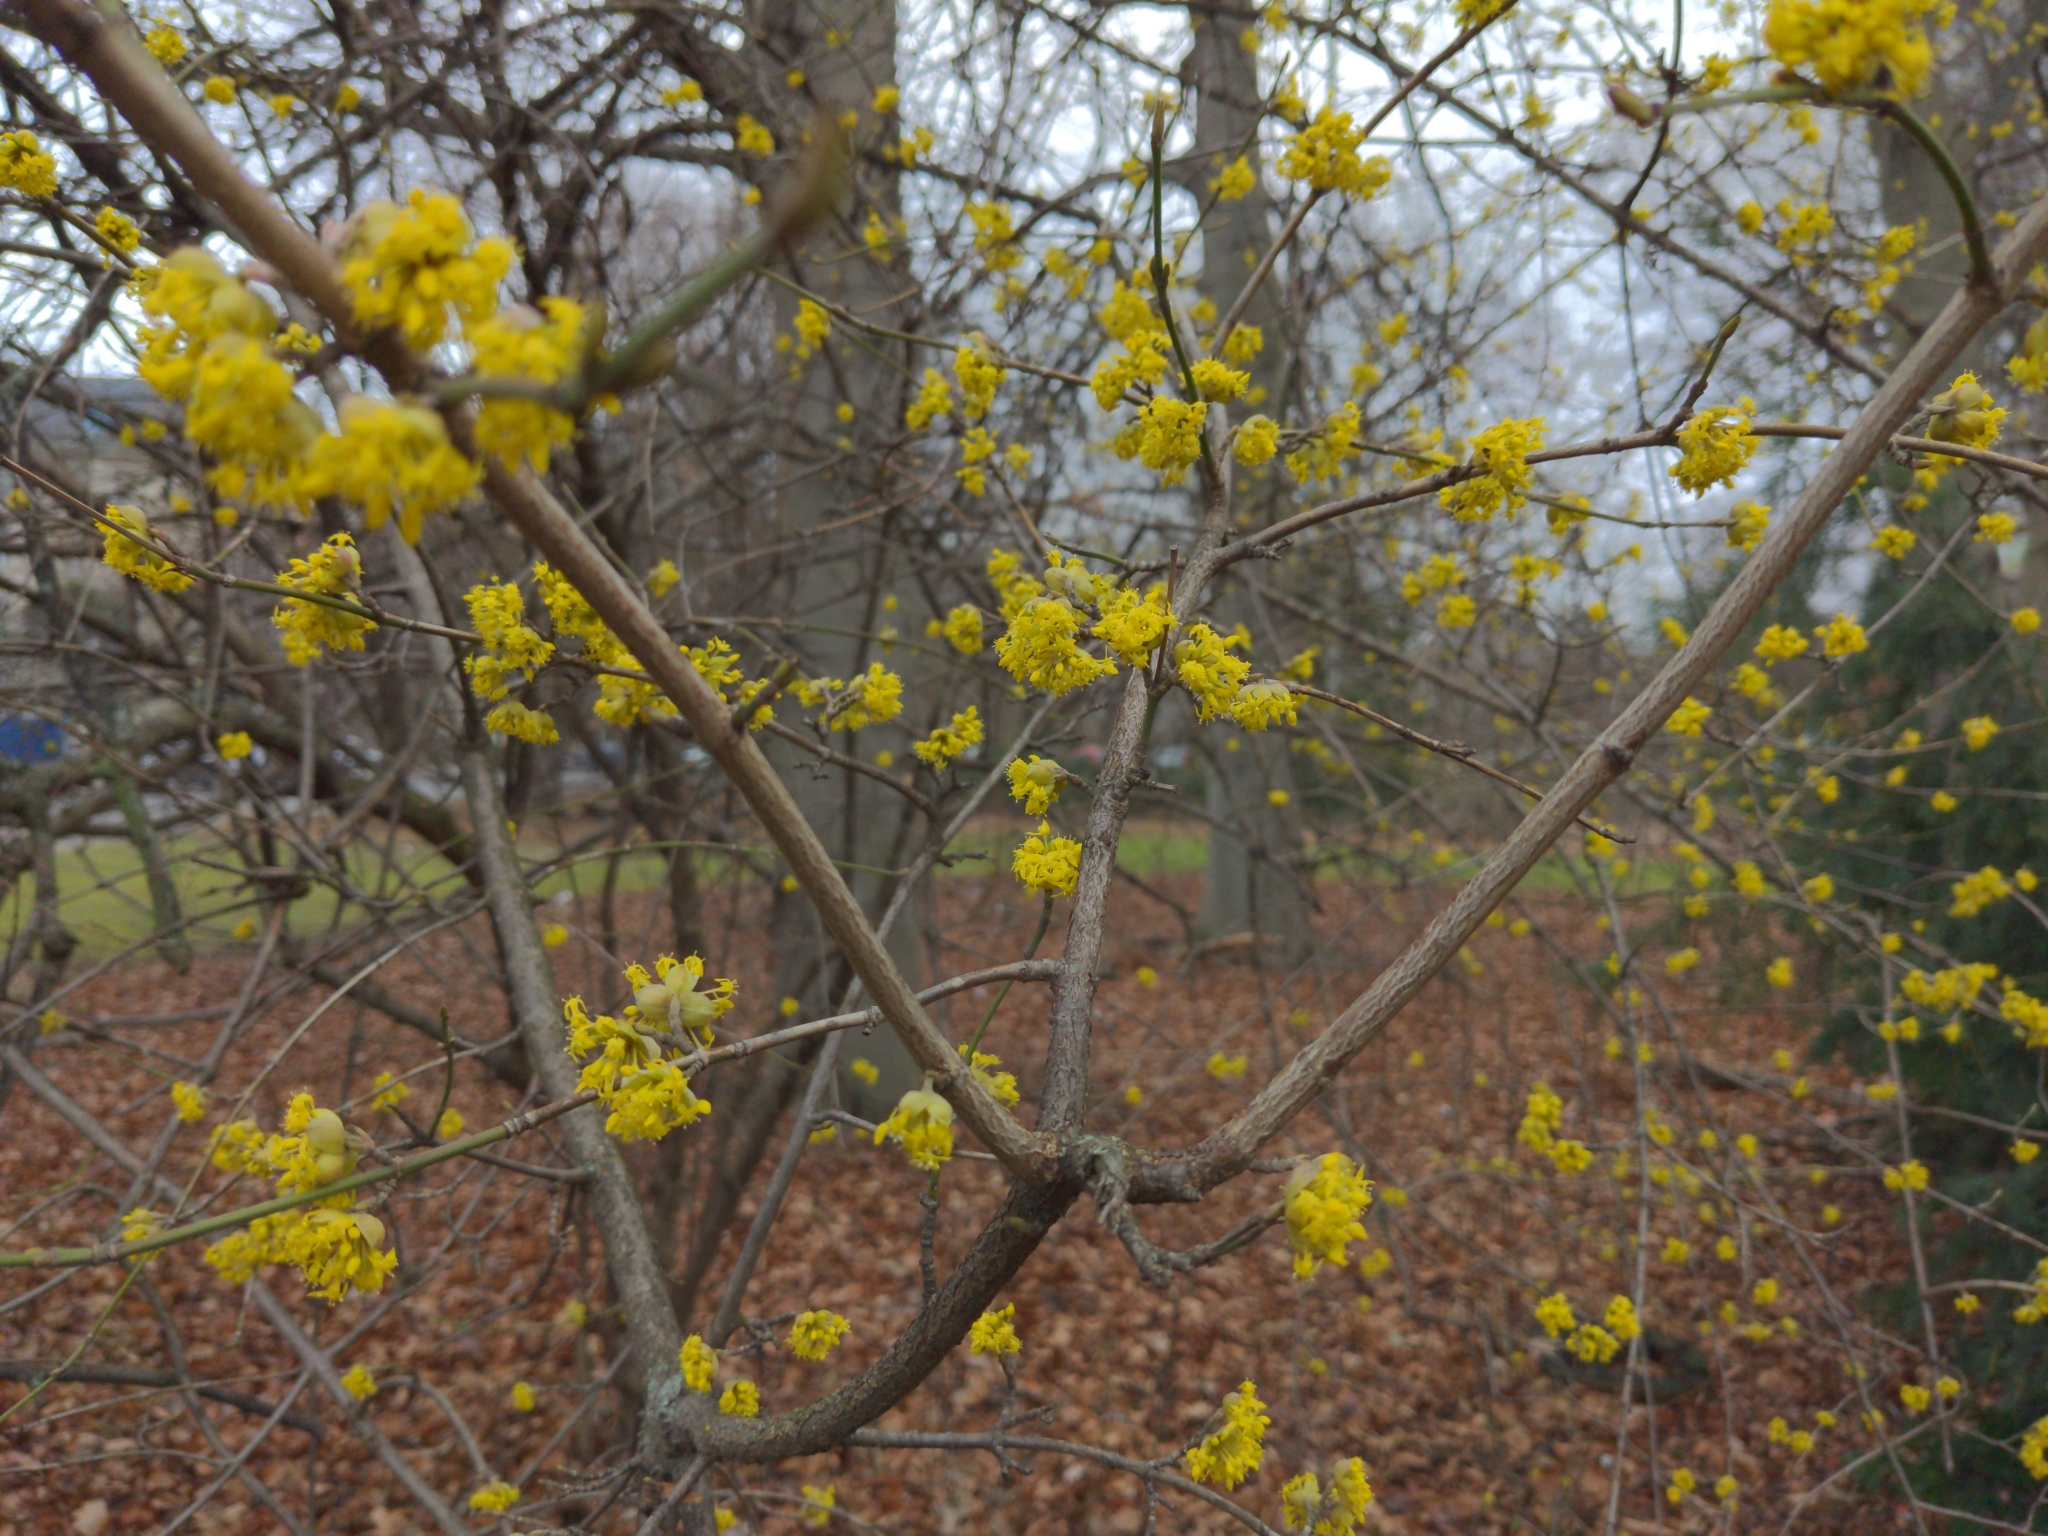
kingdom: Plantae
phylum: Tracheophyta
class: Magnoliopsida
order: Cornales
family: Cornaceae
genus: Cornus
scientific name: Cornus mas
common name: Cornelian-cherry
